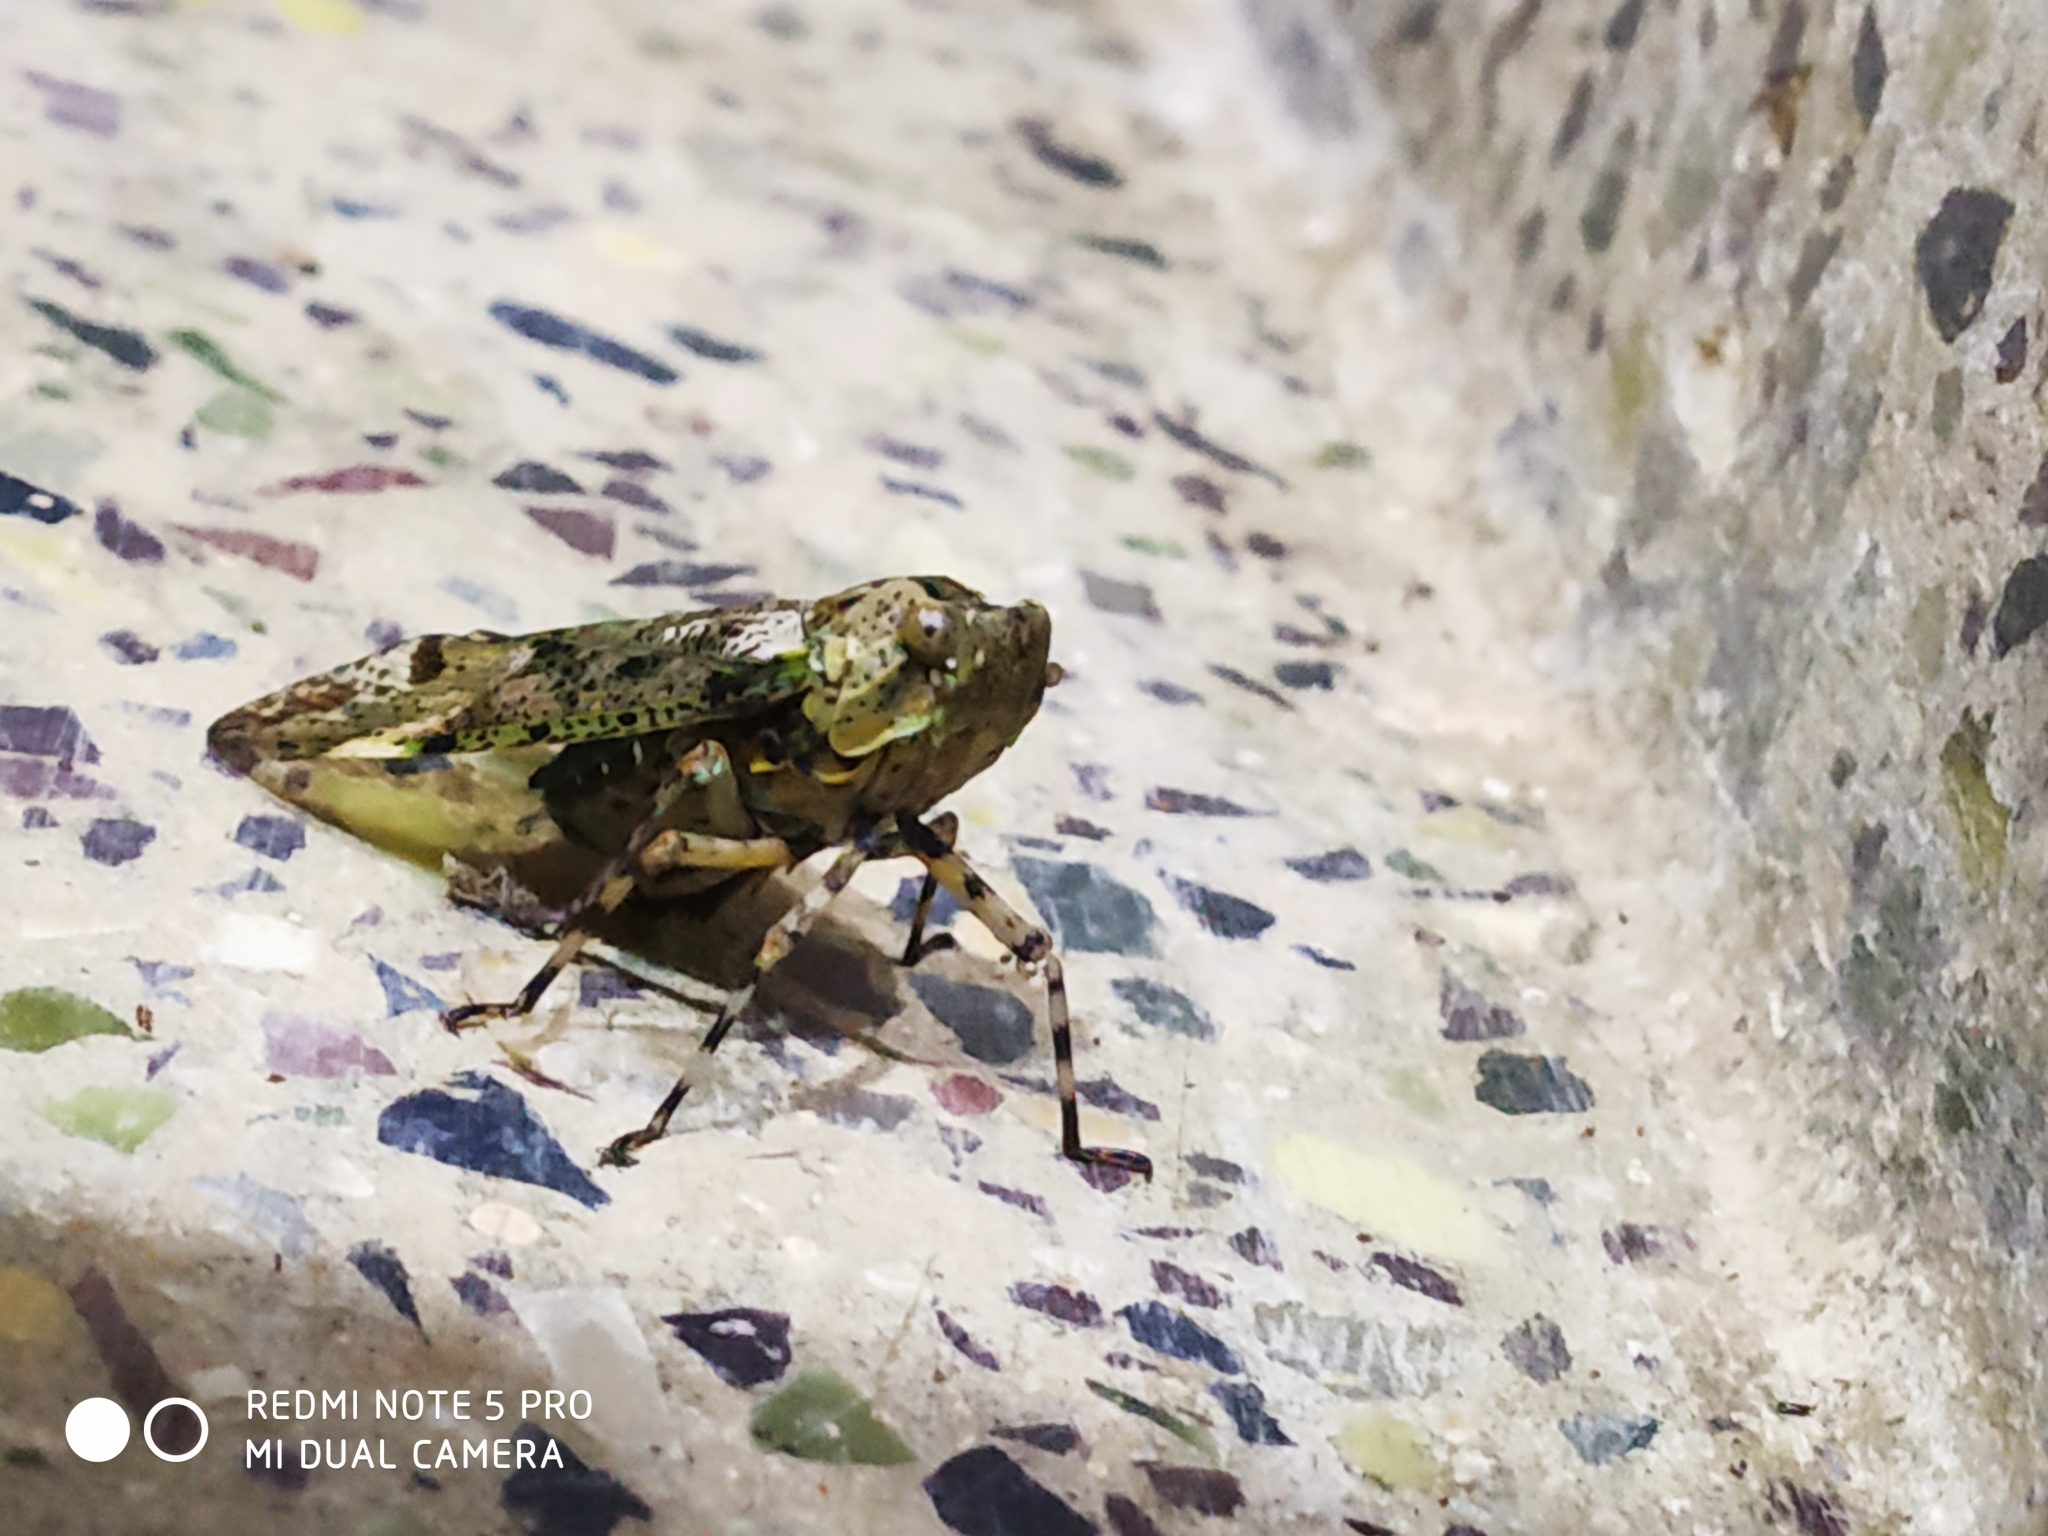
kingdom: Animalia
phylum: Arthropoda
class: Insecta
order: Hemiptera
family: Fulgoridae
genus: Gebenna
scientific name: Gebenna sylvia
